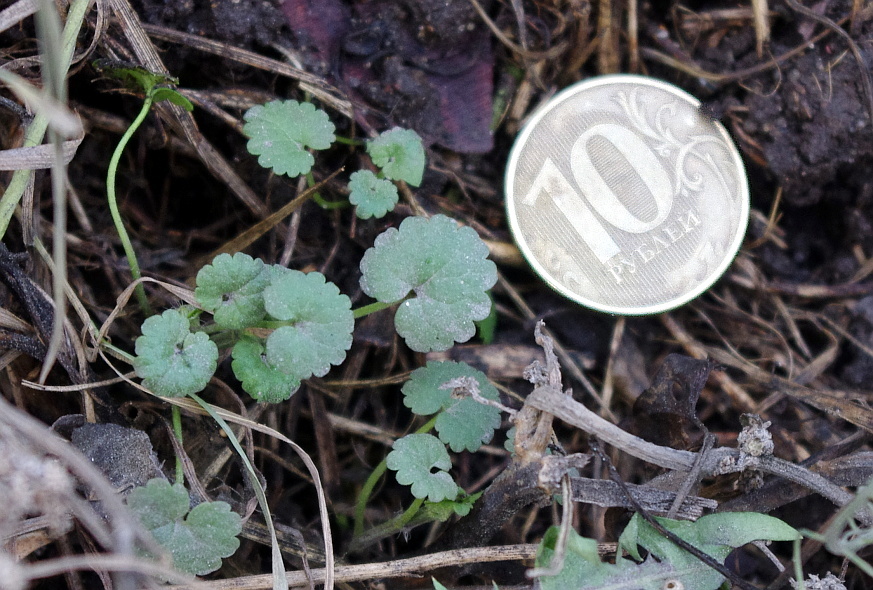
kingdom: Plantae
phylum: Tracheophyta
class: Magnoliopsida
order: Lamiales
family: Lamiaceae
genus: Glechoma
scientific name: Glechoma hederacea
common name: Ground ivy
